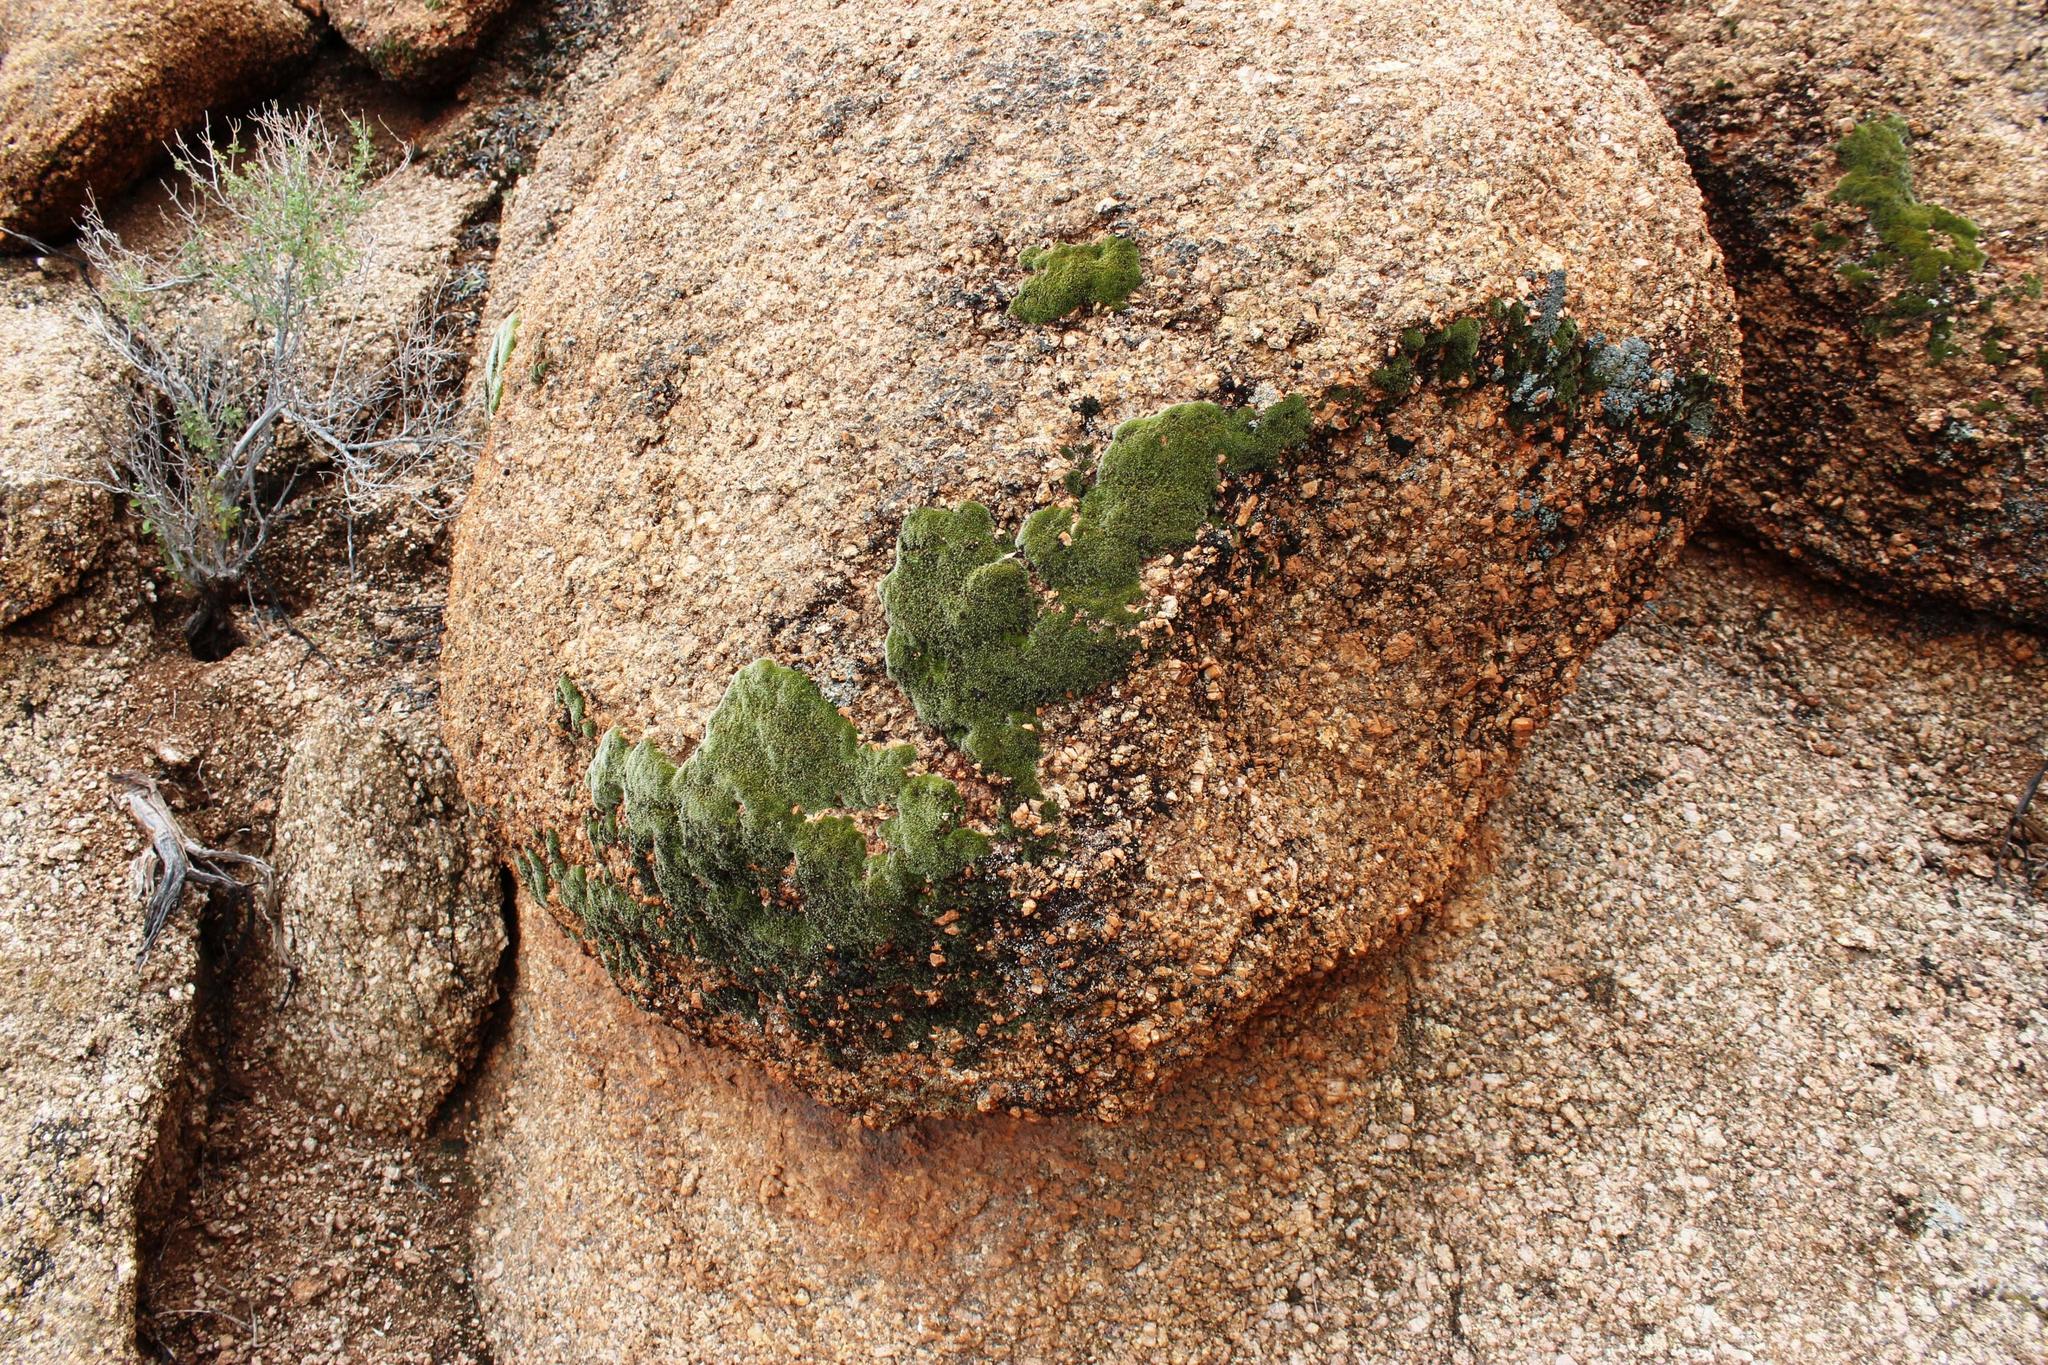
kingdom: Plantae
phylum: Bryophyta
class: Bryopsida
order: Grimmiales
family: Grimmiaceae
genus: Grimmia
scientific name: Grimmia laevigata
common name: Hoary grimmia
